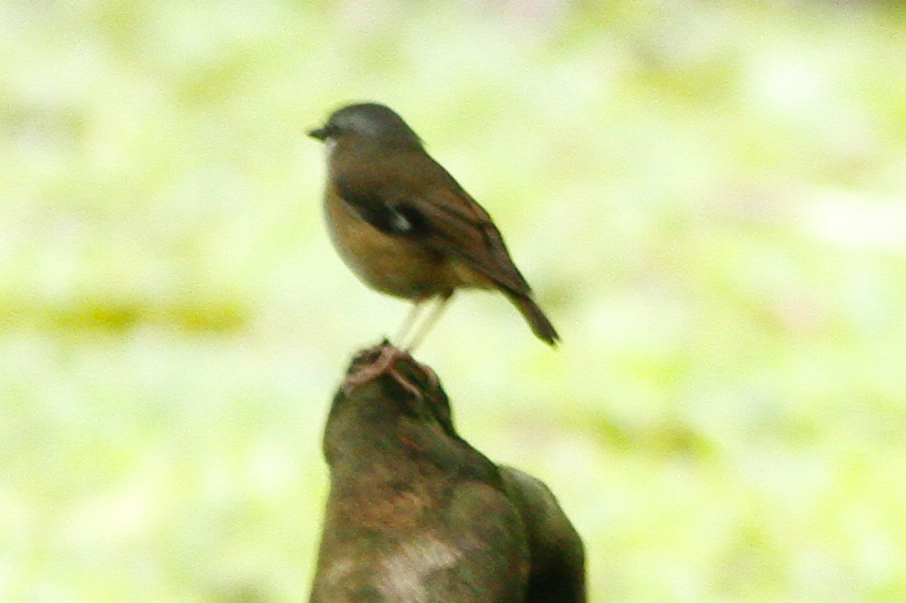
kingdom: Animalia
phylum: Chordata
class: Aves
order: Passeriformes
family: Petroicidae
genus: Heteromyias
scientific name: Heteromyias cinereifrons
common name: Grey-headed robin
